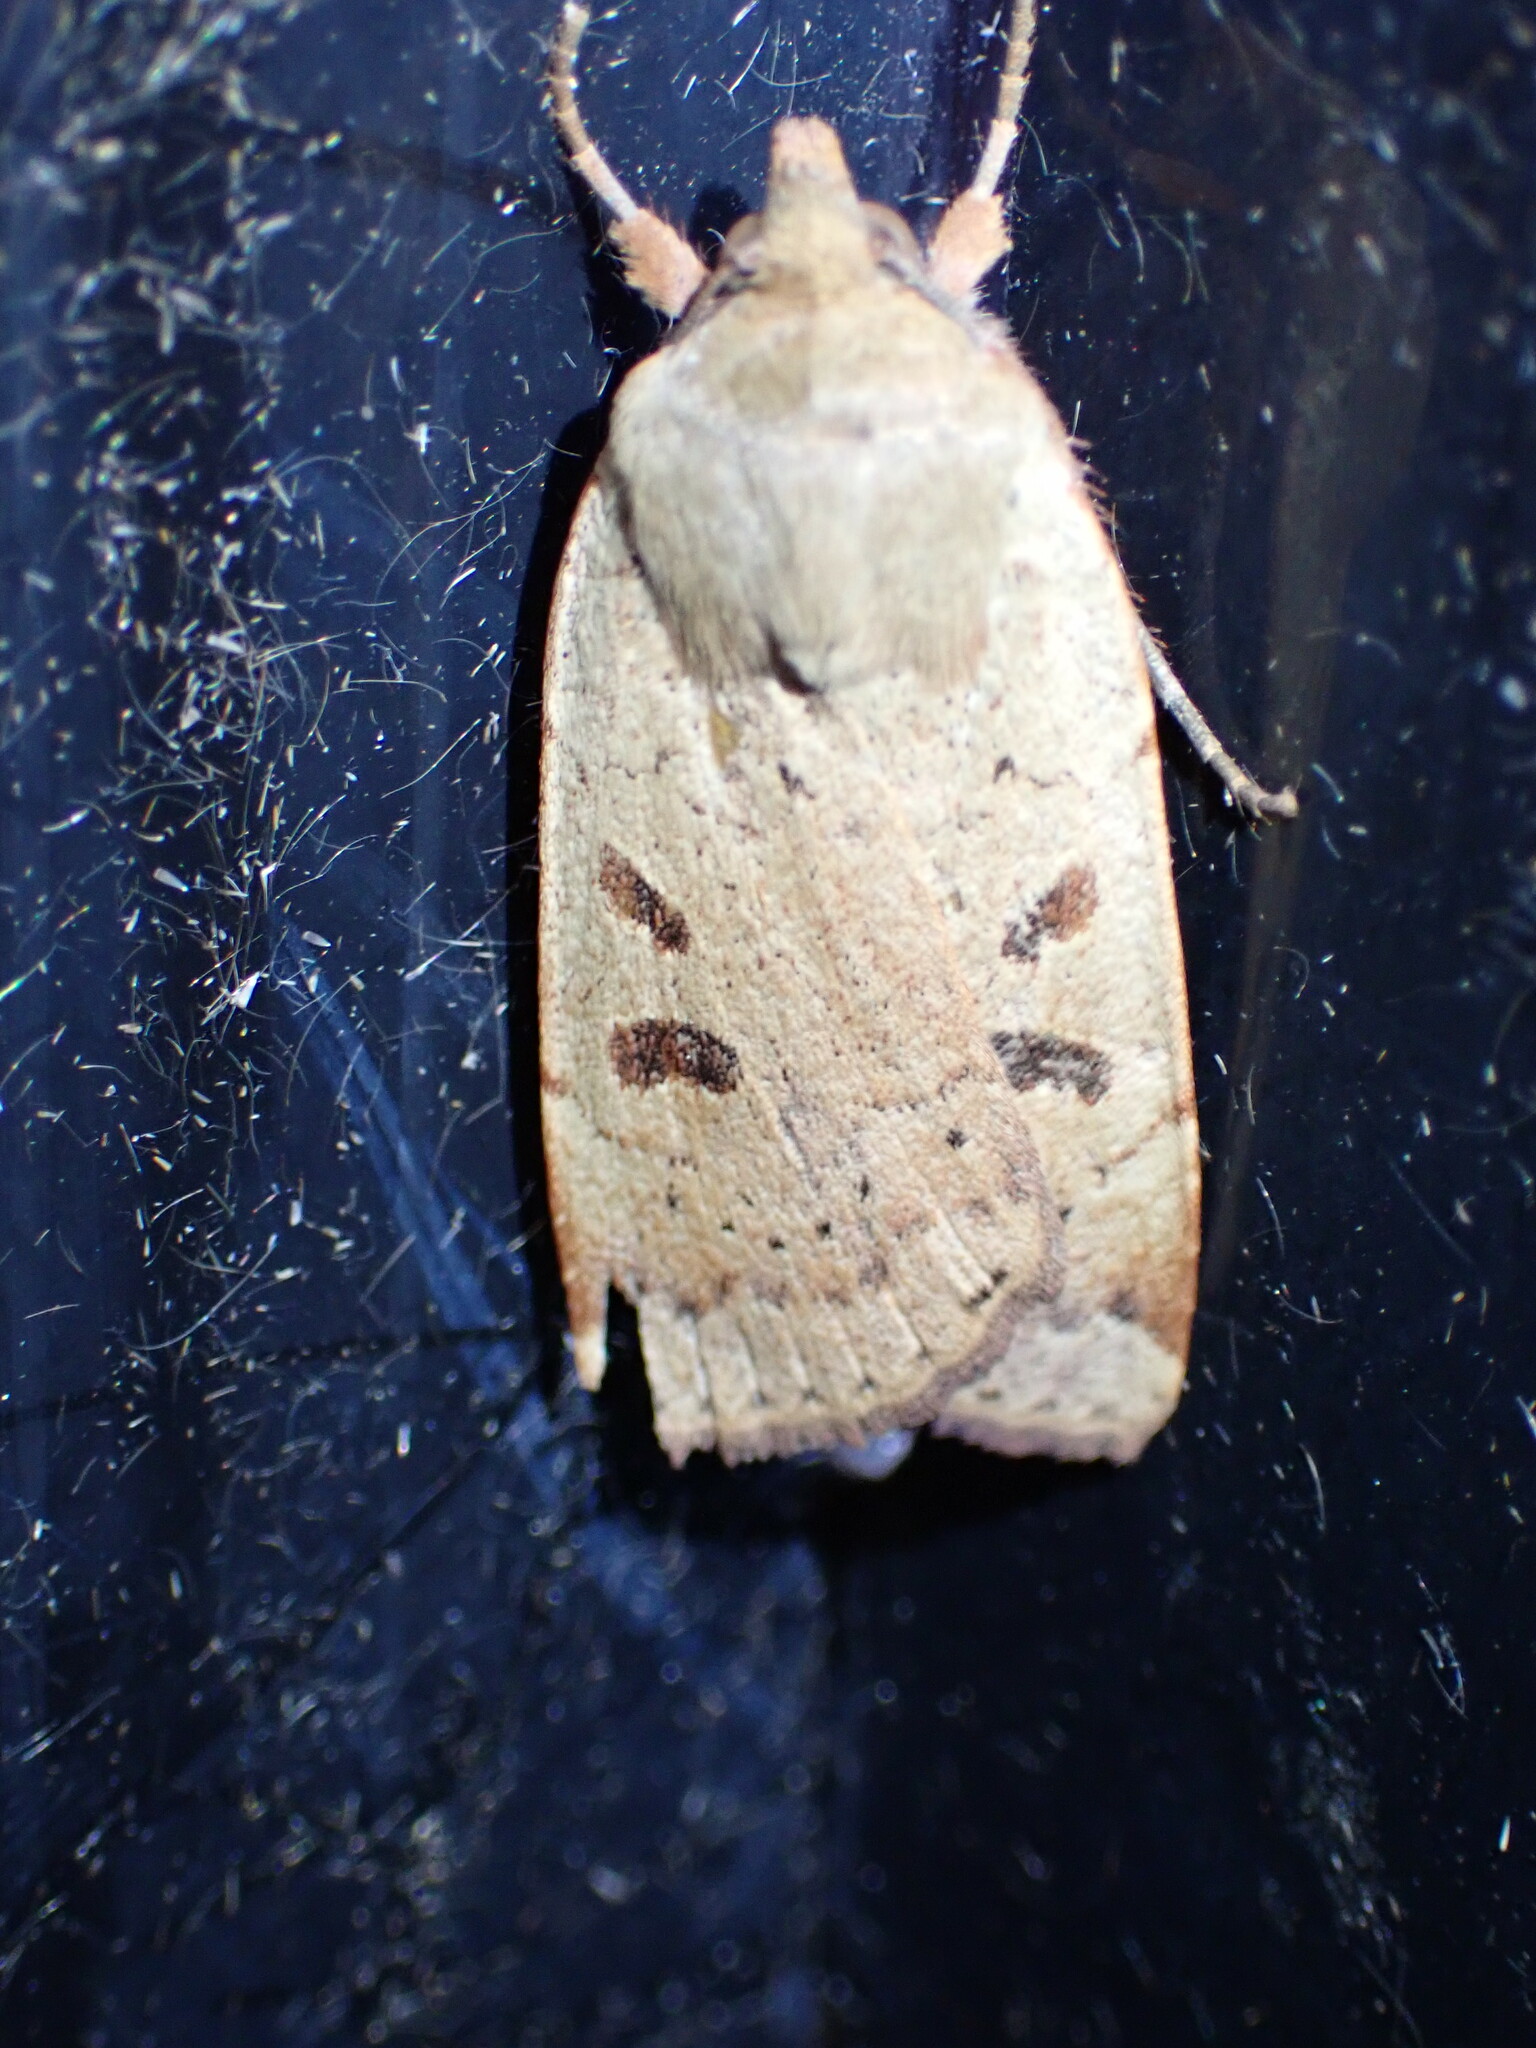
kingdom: Animalia
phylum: Arthropoda
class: Insecta
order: Lepidoptera
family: Noctuidae
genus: Noctua
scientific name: Noctua comes
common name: Lesser yellow underwing
